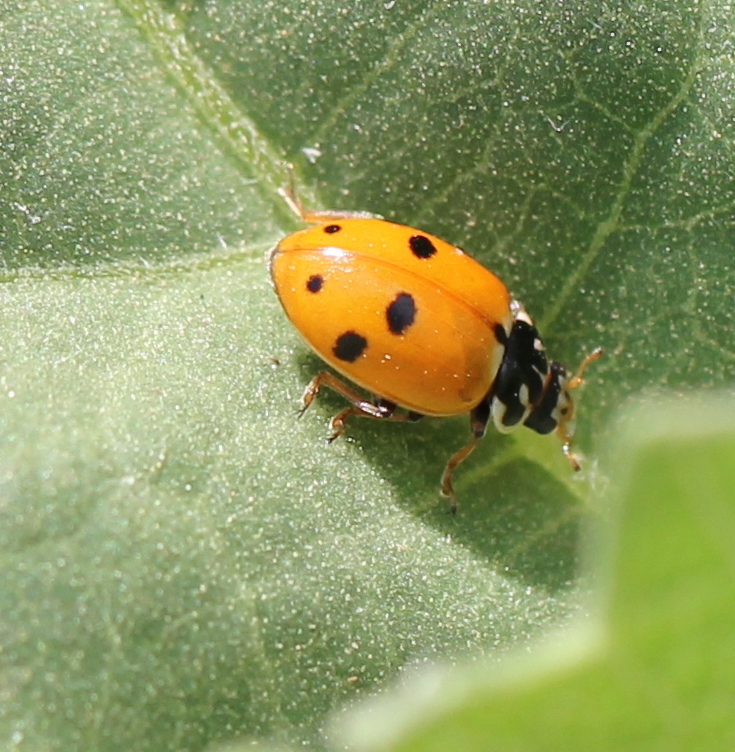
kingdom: Animalia
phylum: Arthropoda
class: Insecta
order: Coleoptera
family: Coccinellidae
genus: Hippodamia
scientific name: Hippodamia variegata
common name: Ladybird beetle
